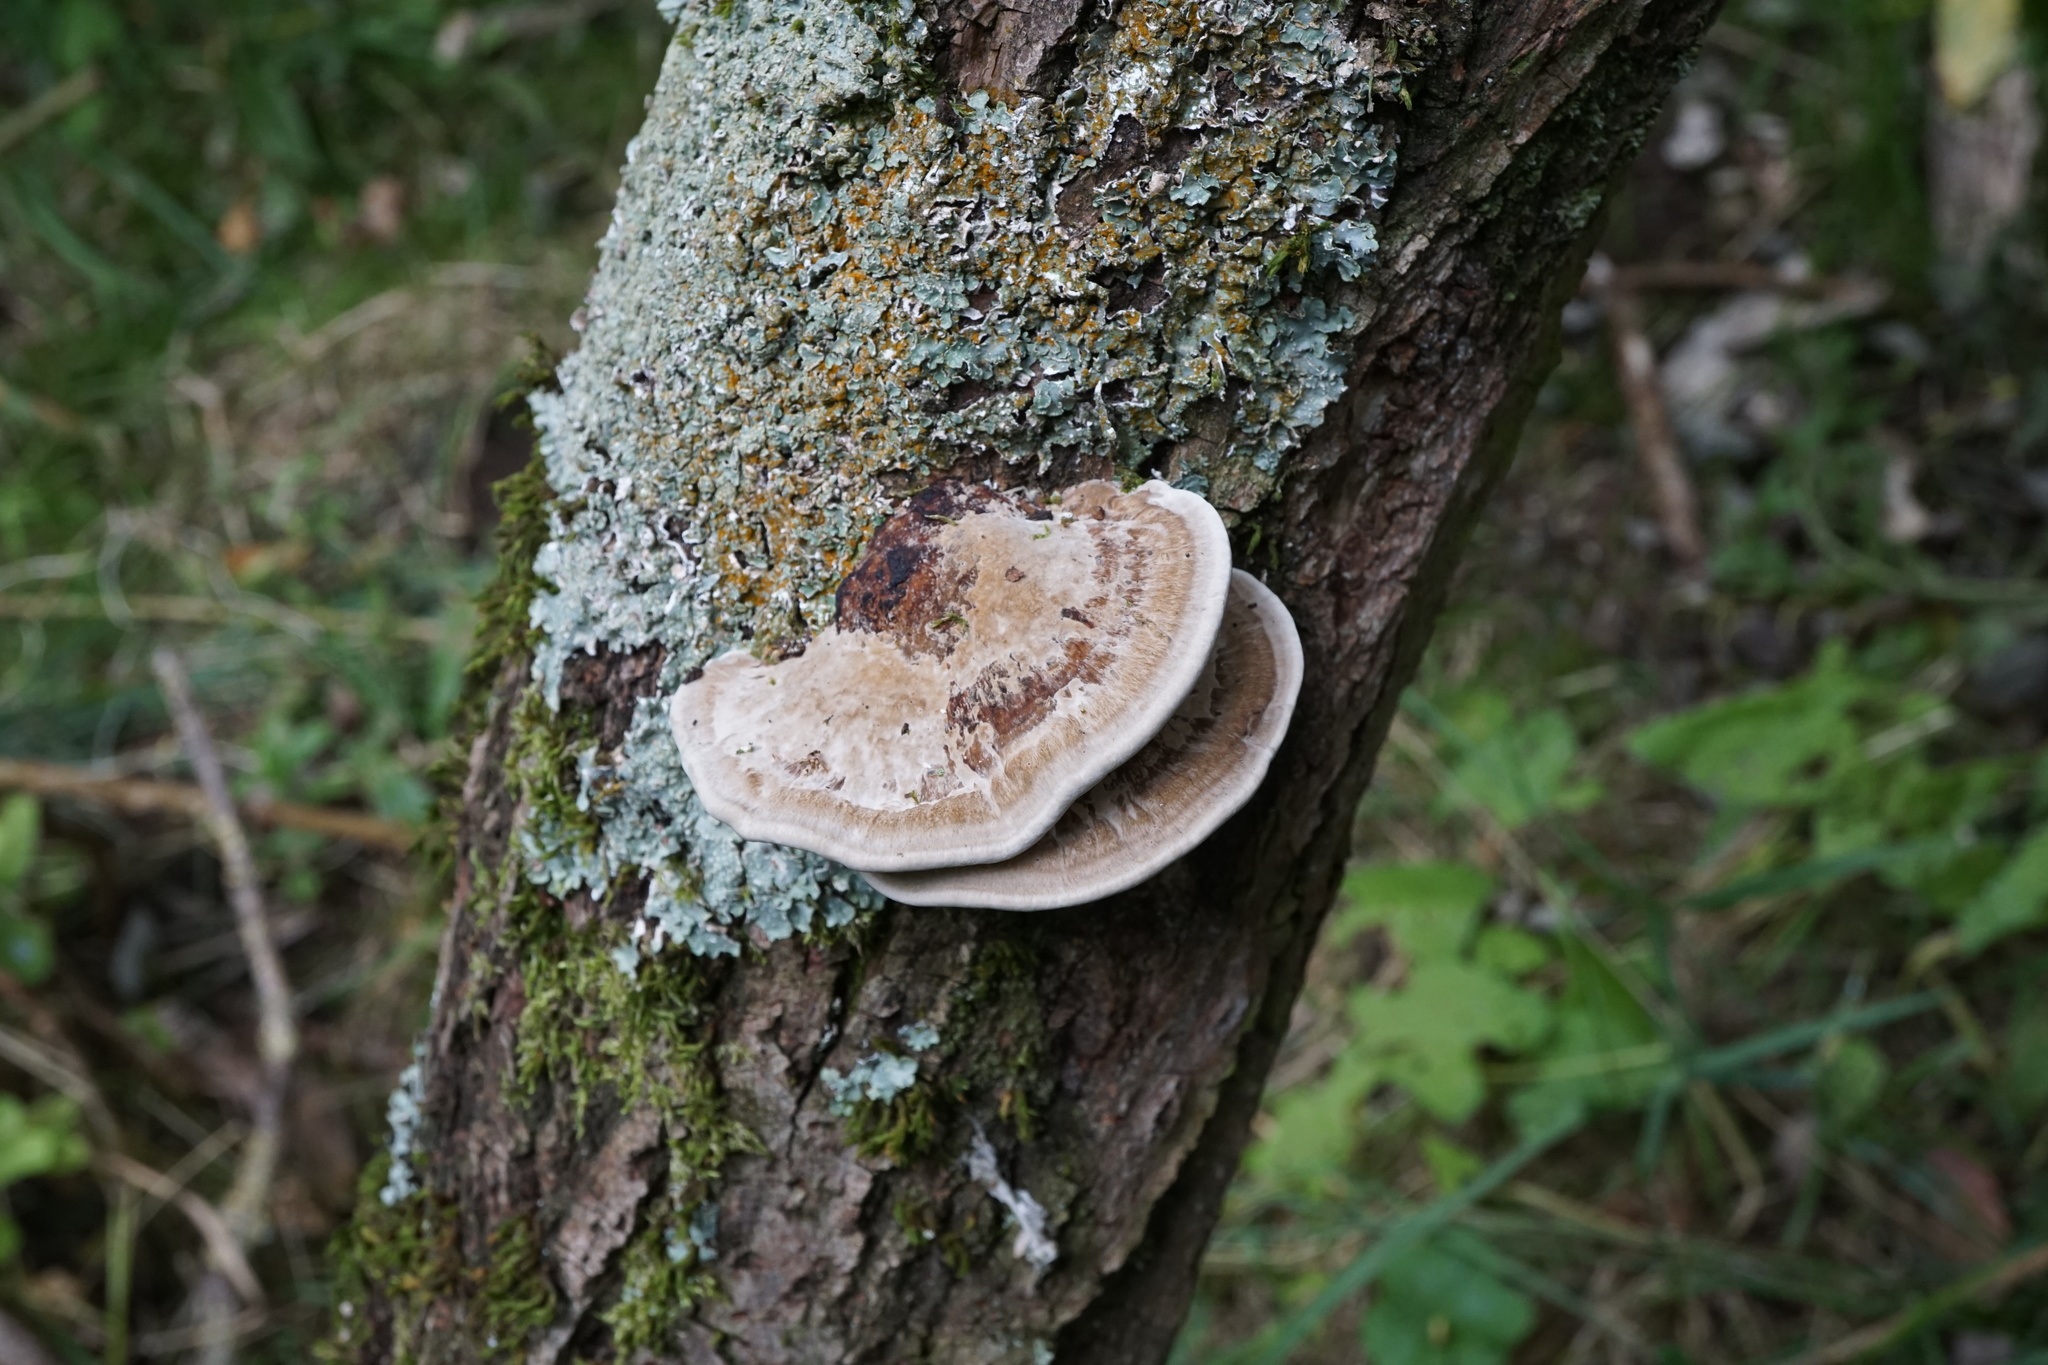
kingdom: Fungi
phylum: Basidiomycota
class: Agaricomycetes
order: Polyporales
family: Polyporaceae
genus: Daedaleopsis
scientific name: Daedaleopsis confragosa
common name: Blushing bracket
